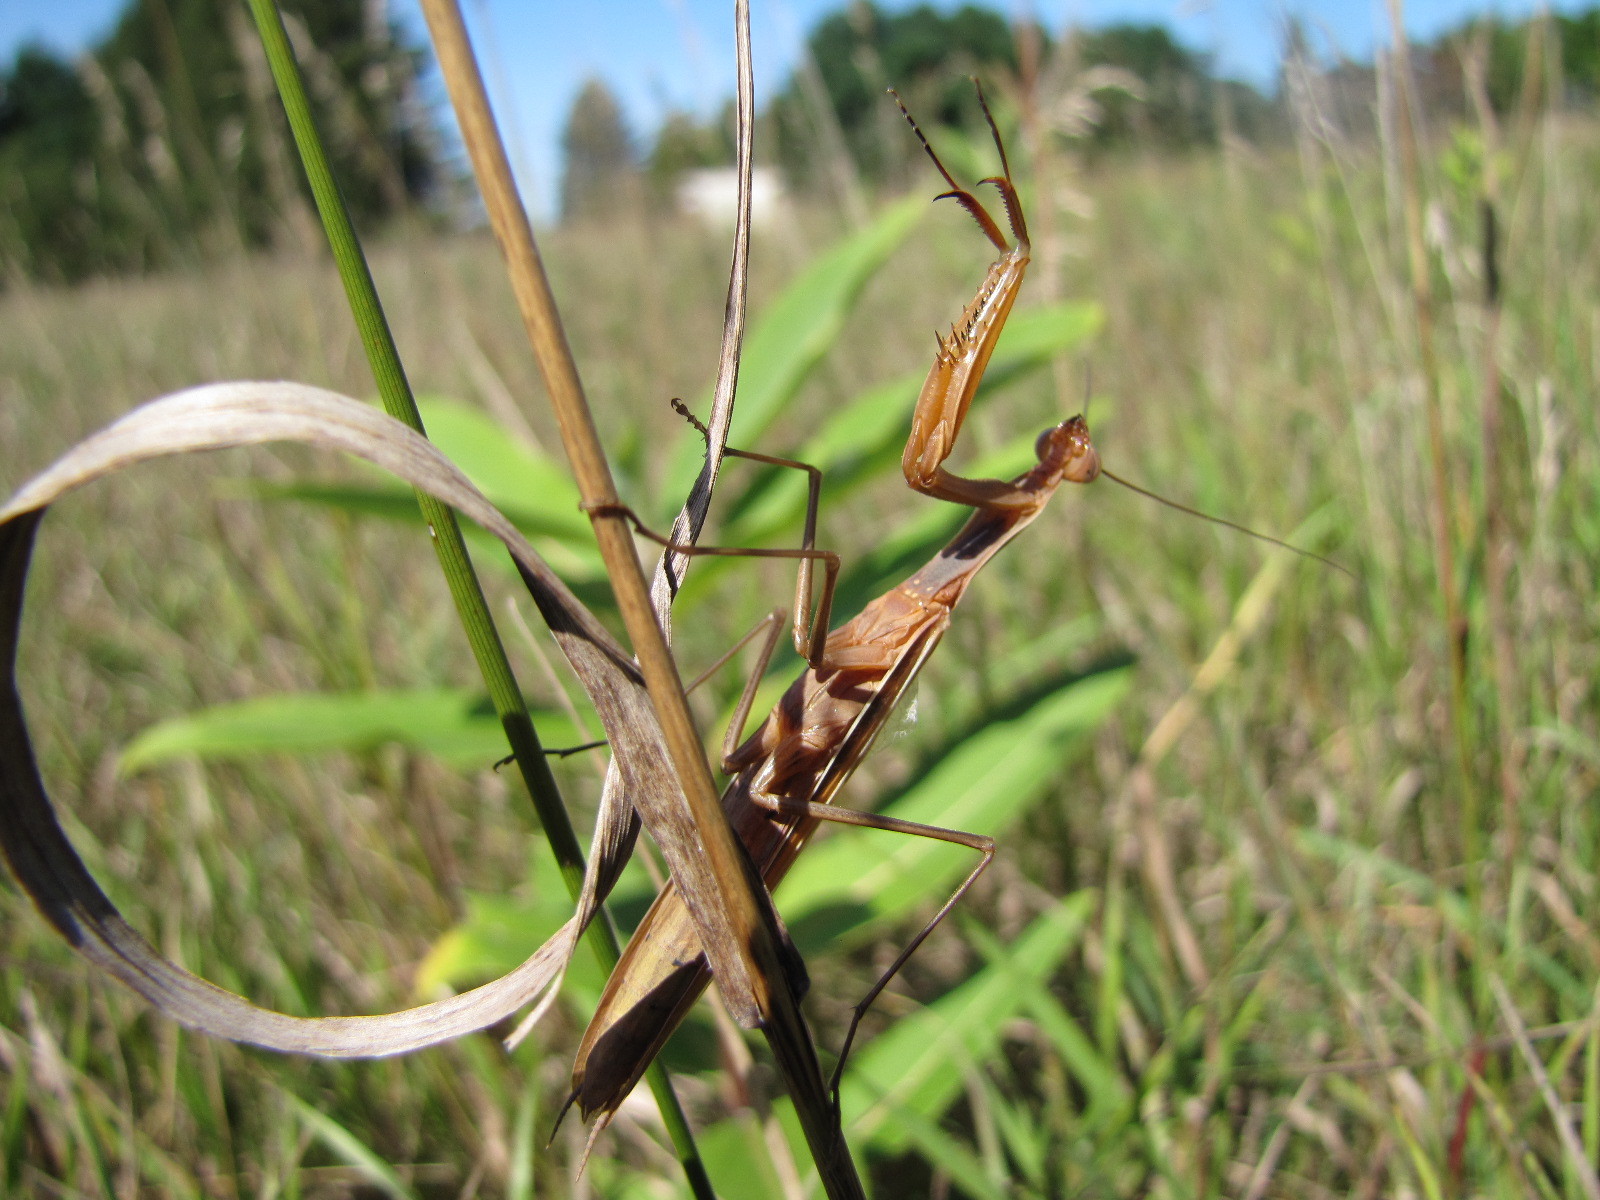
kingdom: Animalia
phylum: Arthropoda
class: Insecta
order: Mantodea
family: Mantidae
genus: Mantis
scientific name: Mantis religiosa
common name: Praying mantis
